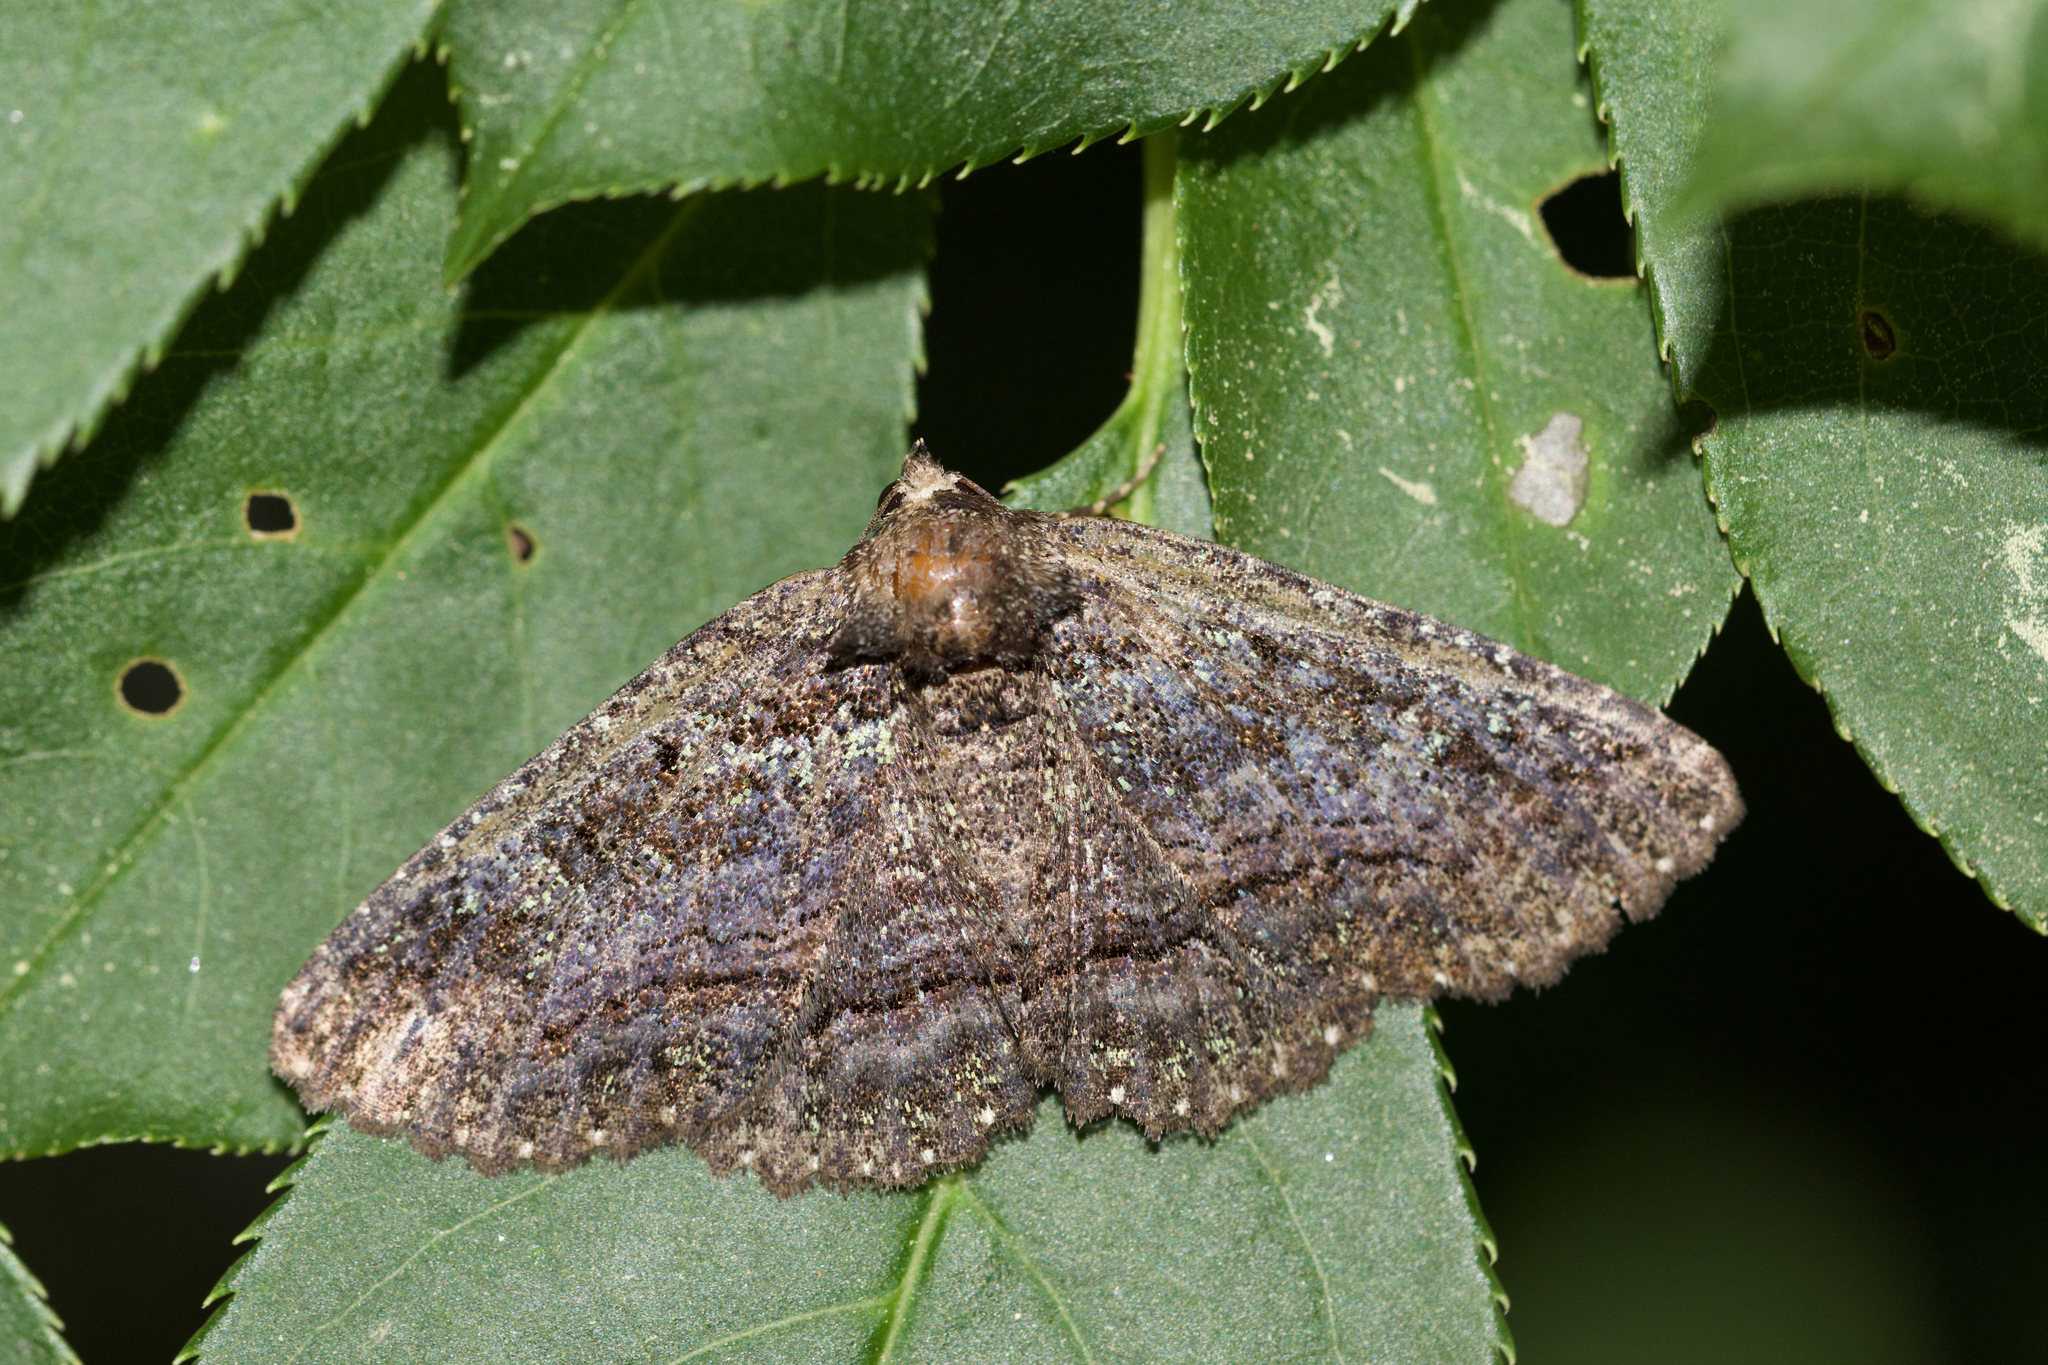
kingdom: Animalia
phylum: Arthropoda
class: Insecta
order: Lepidoptera
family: Erebidae
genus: Zale
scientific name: Zale aeruginosa
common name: Green-dusted zale moth
